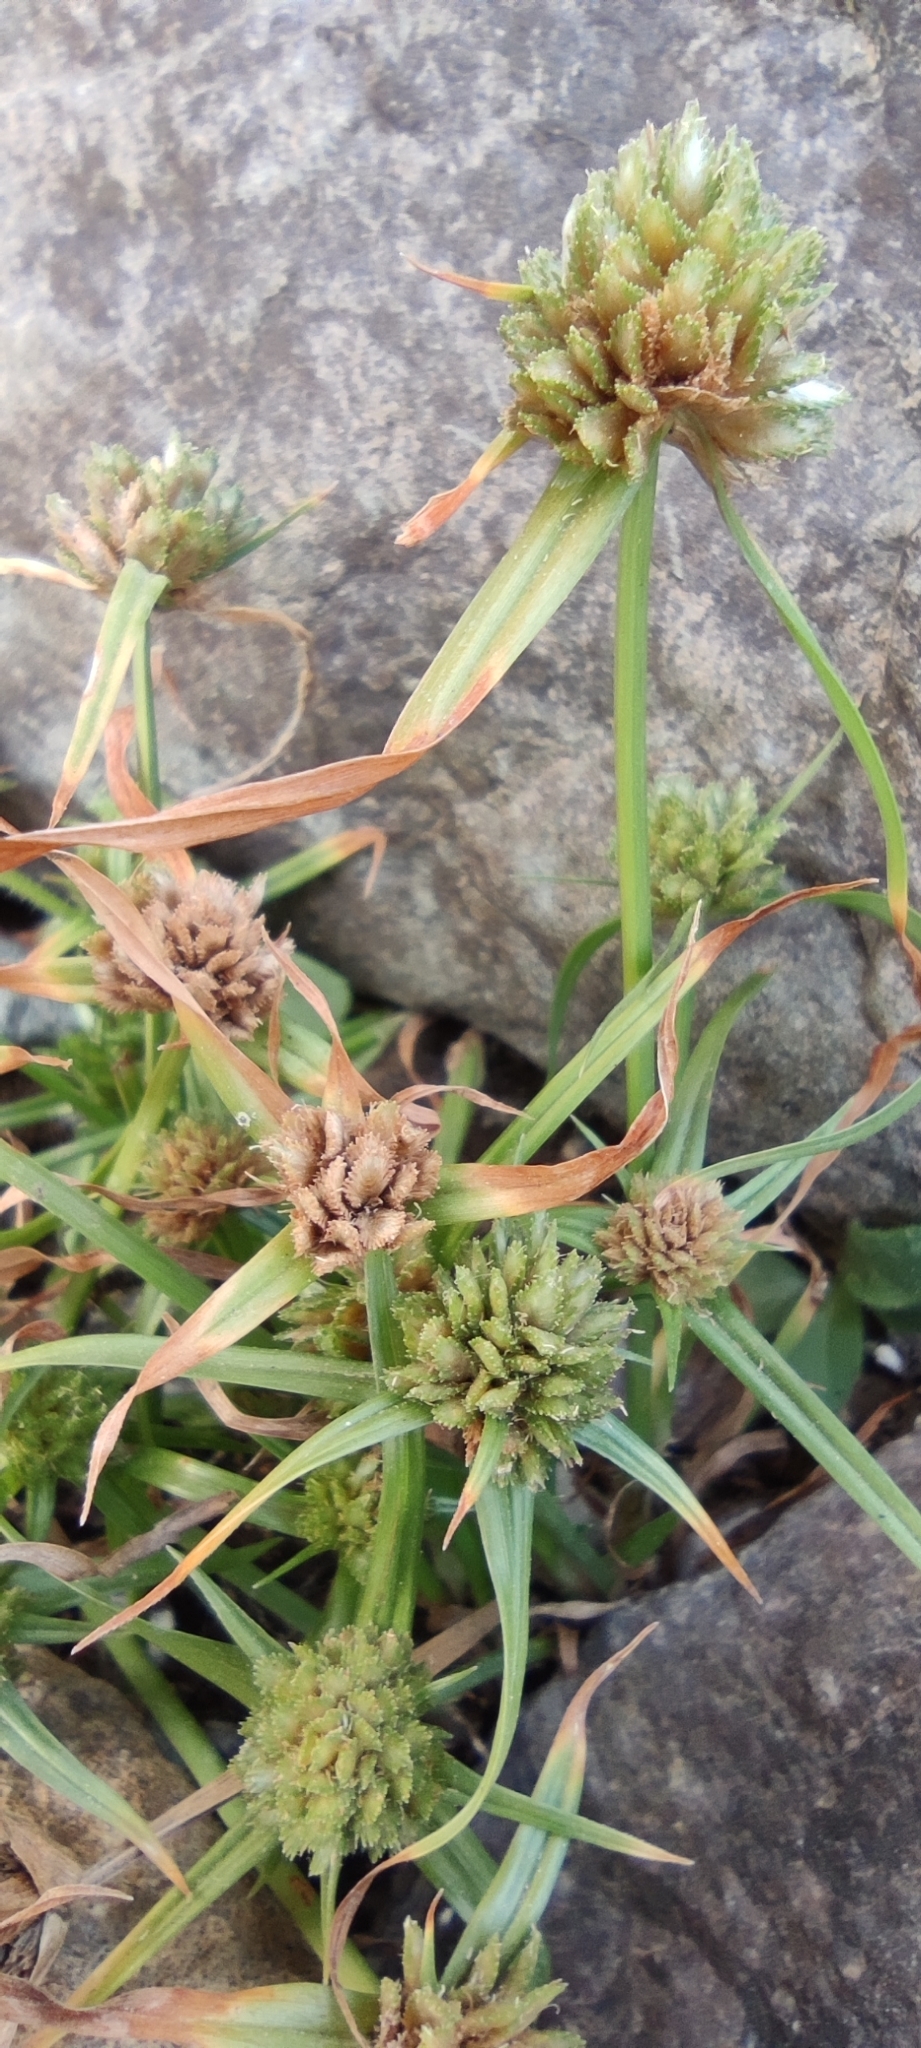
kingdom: Plantae
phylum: Tracheophyta
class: Liliopsida
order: Poales
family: Cyperaceae
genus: Cyperus
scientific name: Cyperus michelianus
